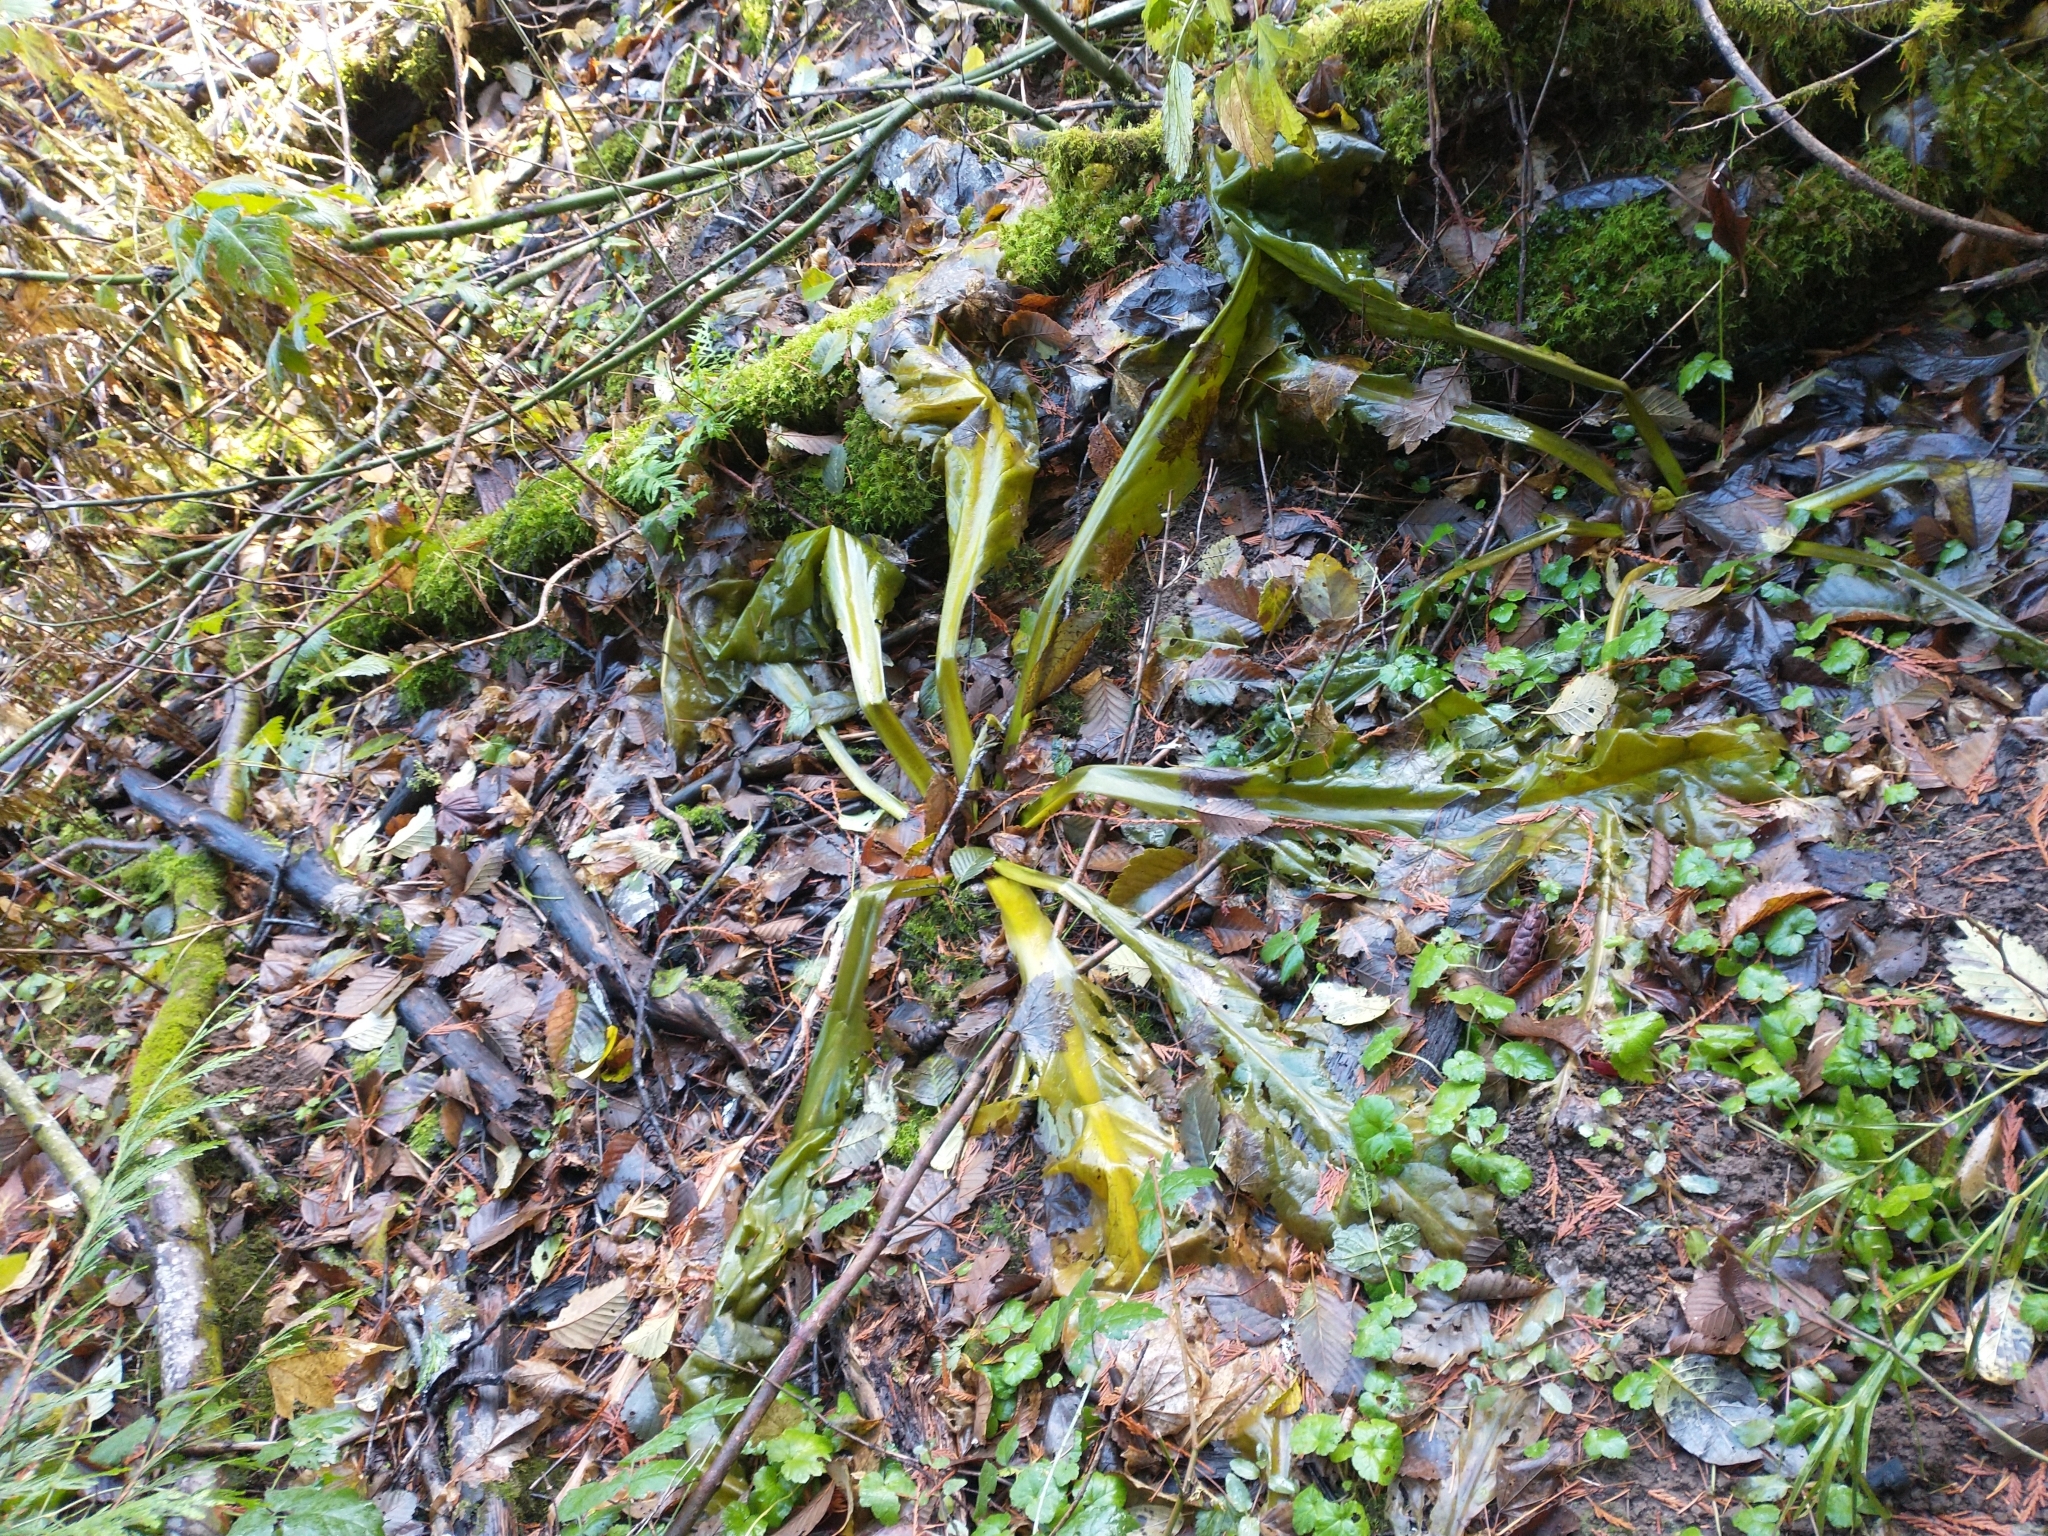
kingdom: Plantae
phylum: Tracheophyta
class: Liliopsida
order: Alismatales
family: Araceae
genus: Lysichiton
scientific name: Lysichiton americanus
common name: American skunk cabbage
